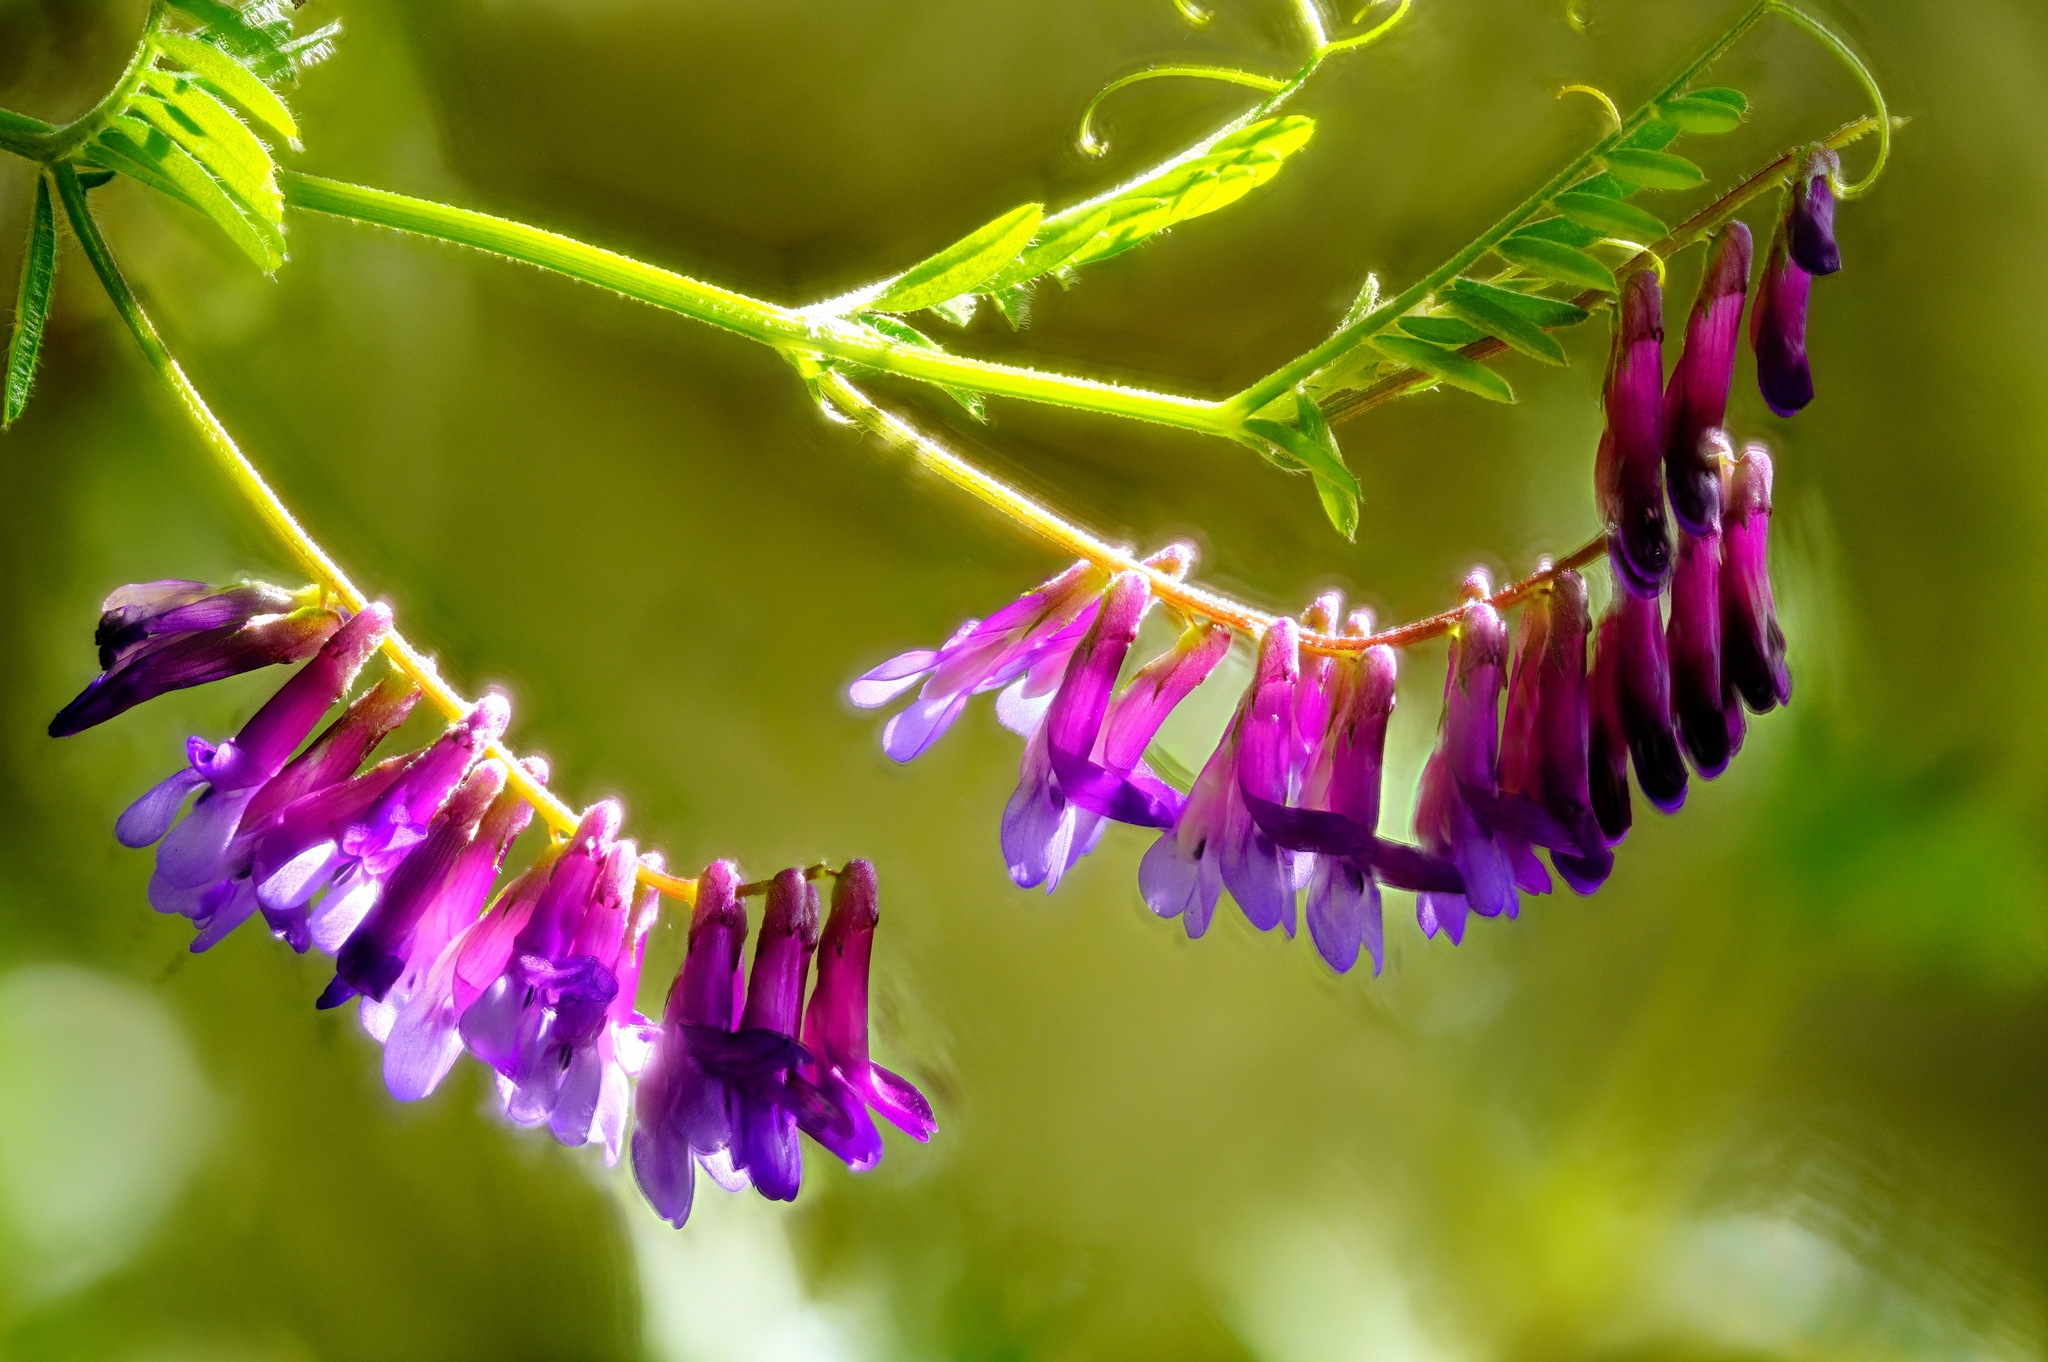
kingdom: Plantae
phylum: Tracheophyta
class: Magnoliopsida
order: Fabales
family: Fabaceae
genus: Vicia
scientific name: Vicia villosa
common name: Fodder vetch
